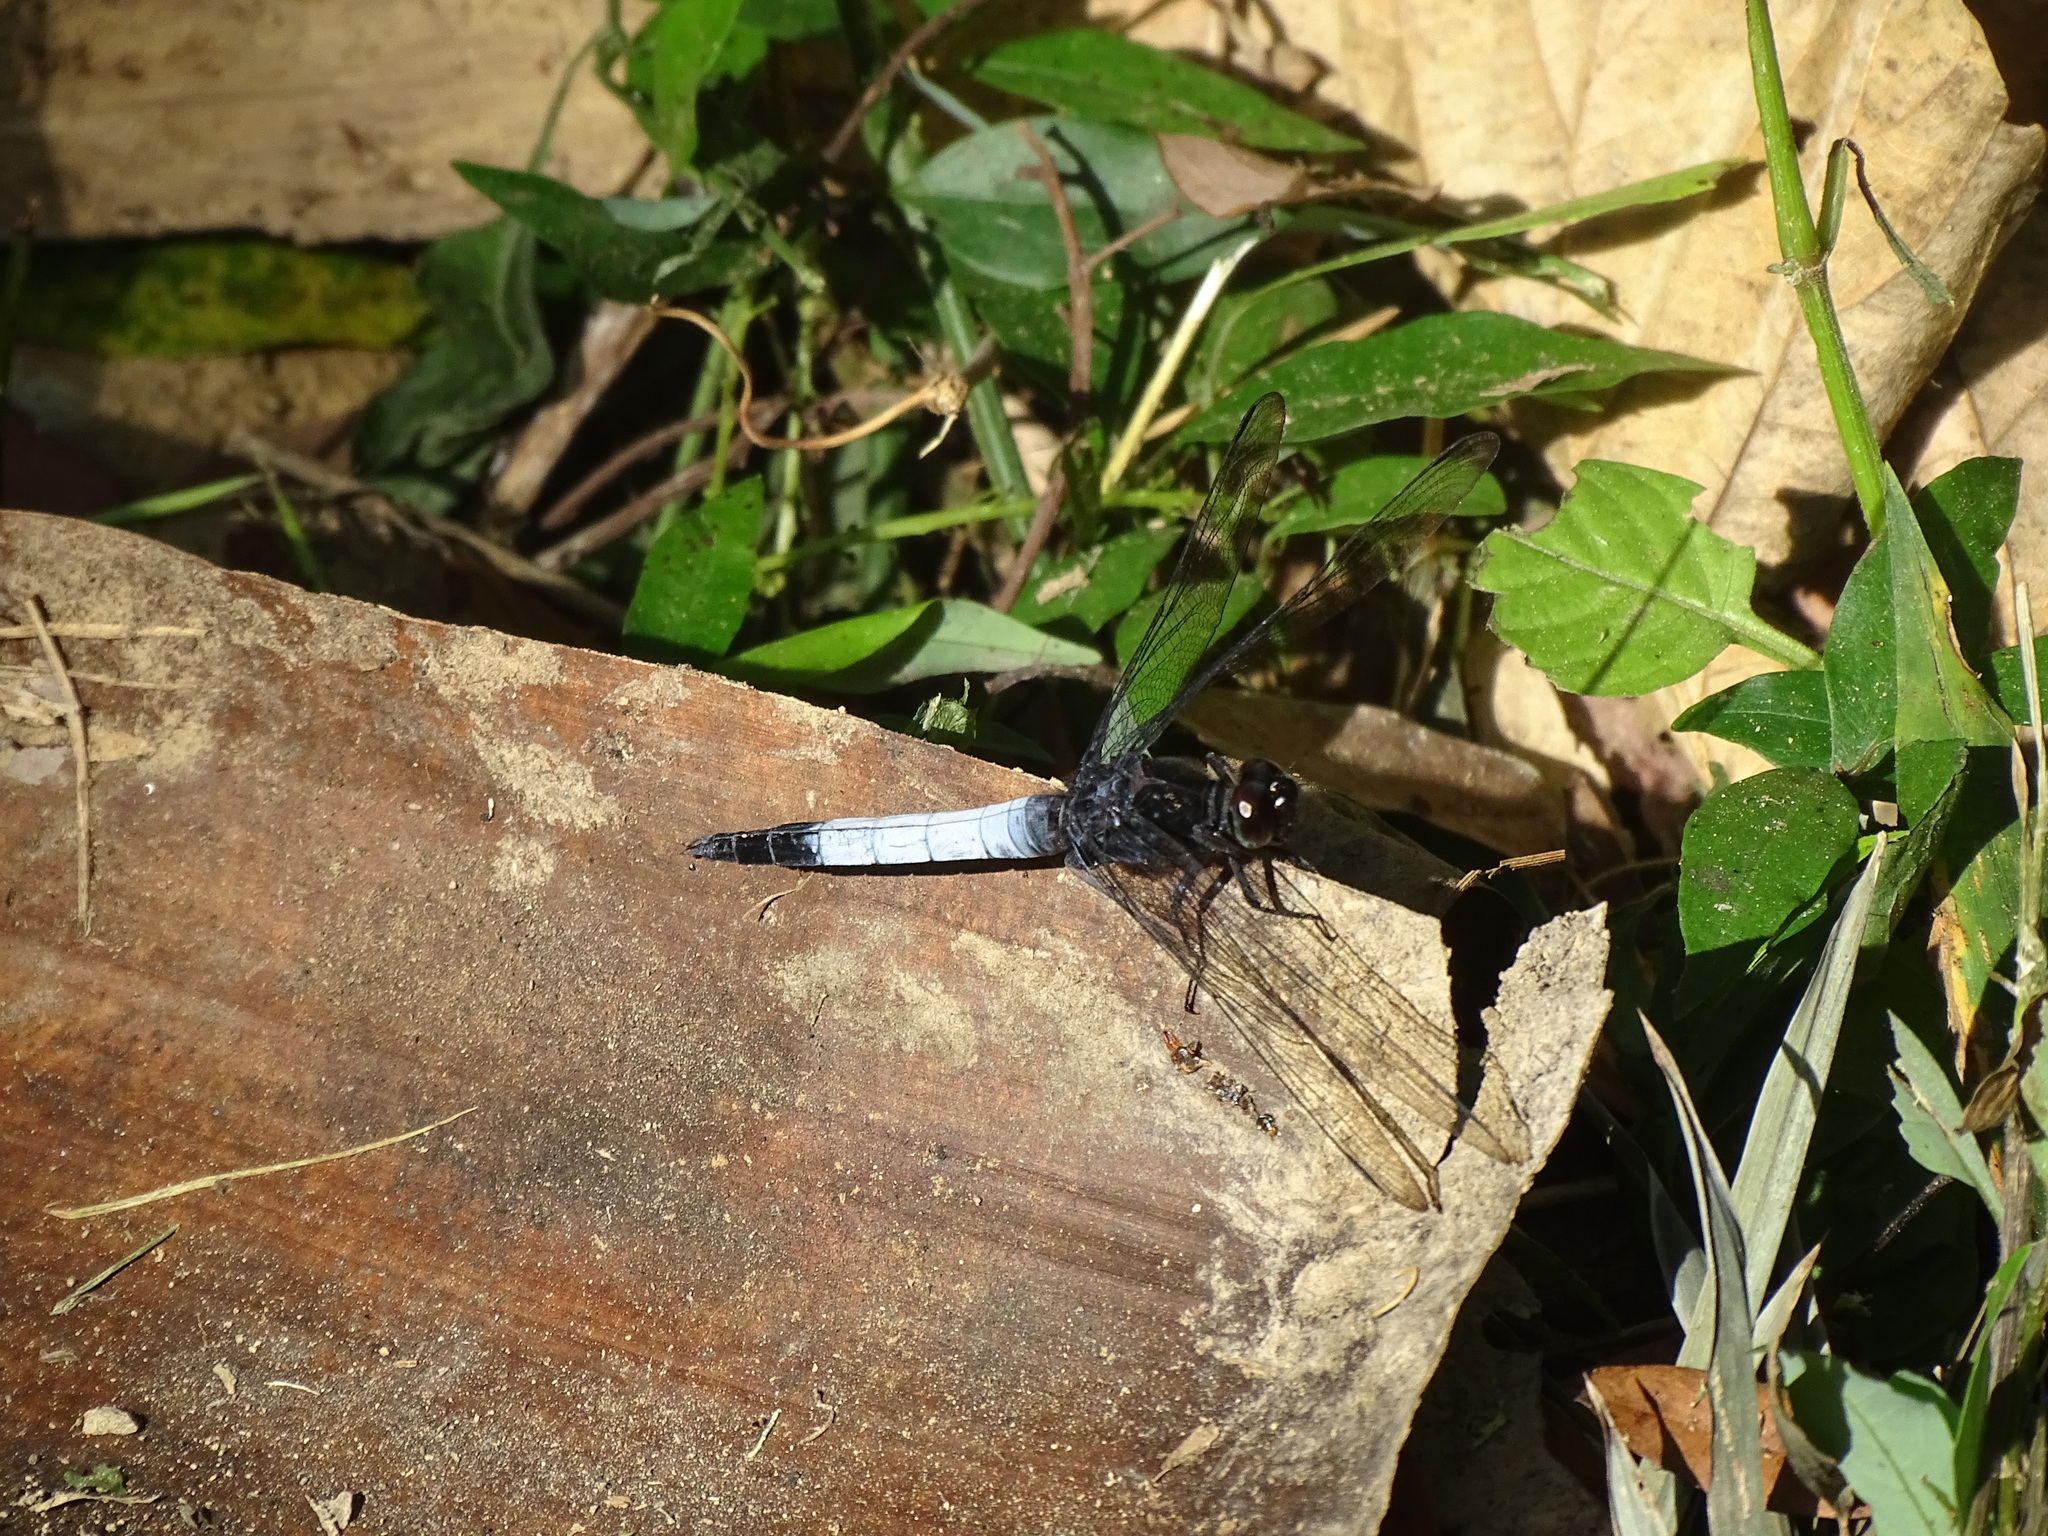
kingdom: Animalia
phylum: Arthropoda
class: Insecta
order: Odonata
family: Libellulidae
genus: Orthetrum
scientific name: Orthetrum triangulare
